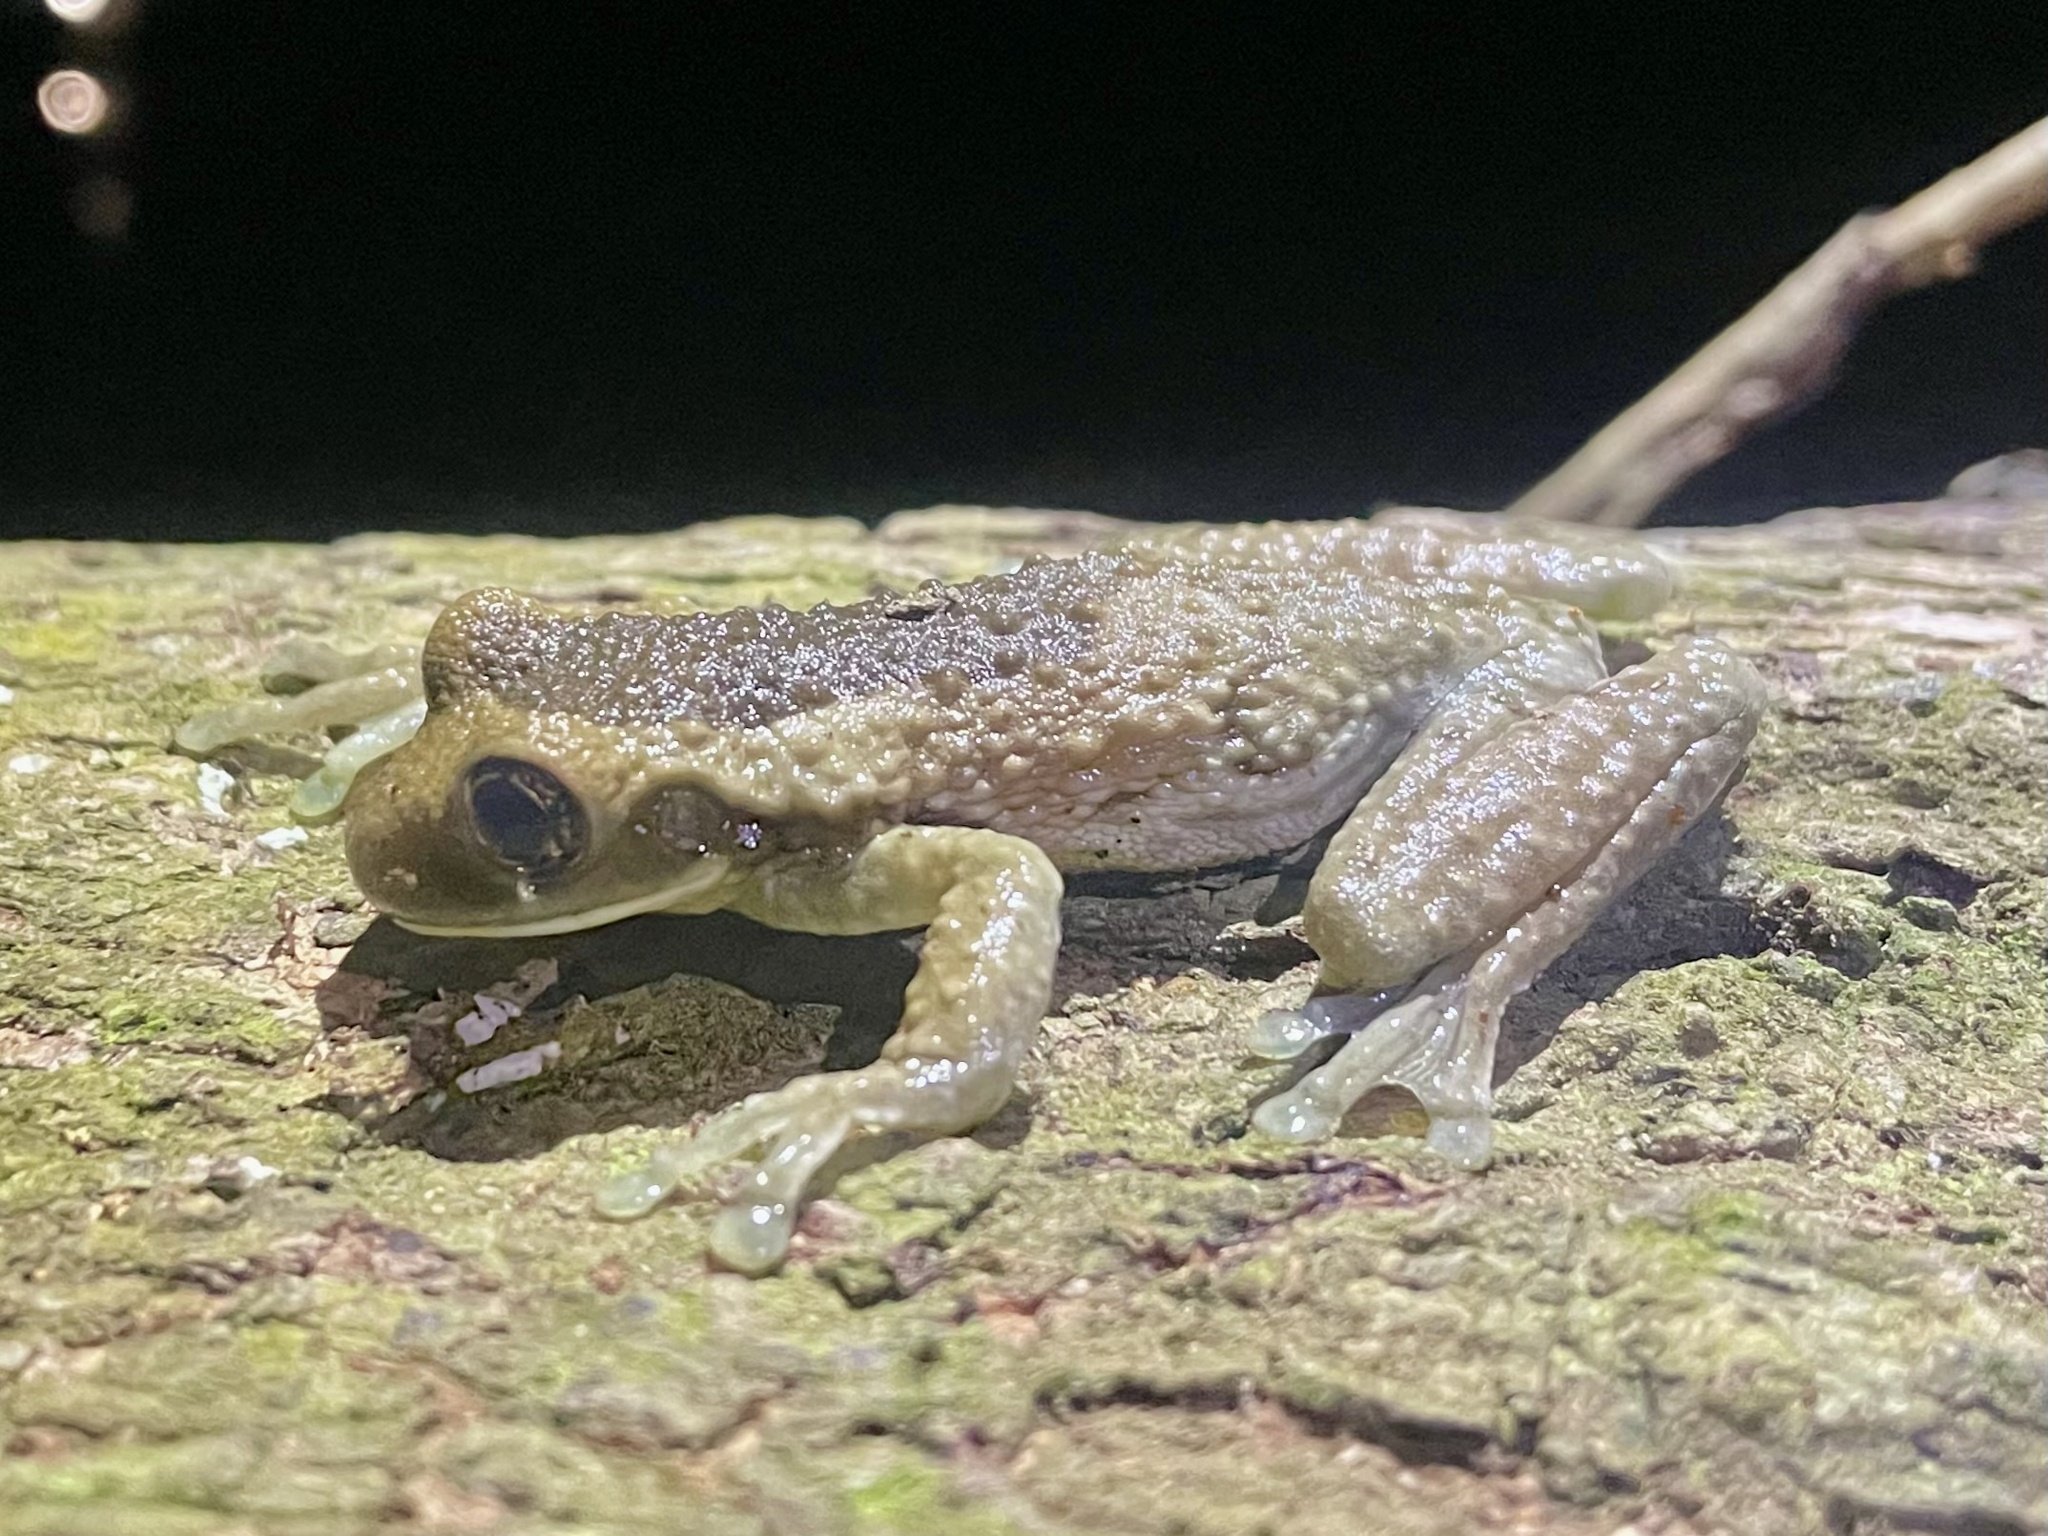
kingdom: Animalia
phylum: Chordata
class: Amphibia
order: Anura
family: Hylidae
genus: Trachycephalus
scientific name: Trachycephalus vermiculatus
